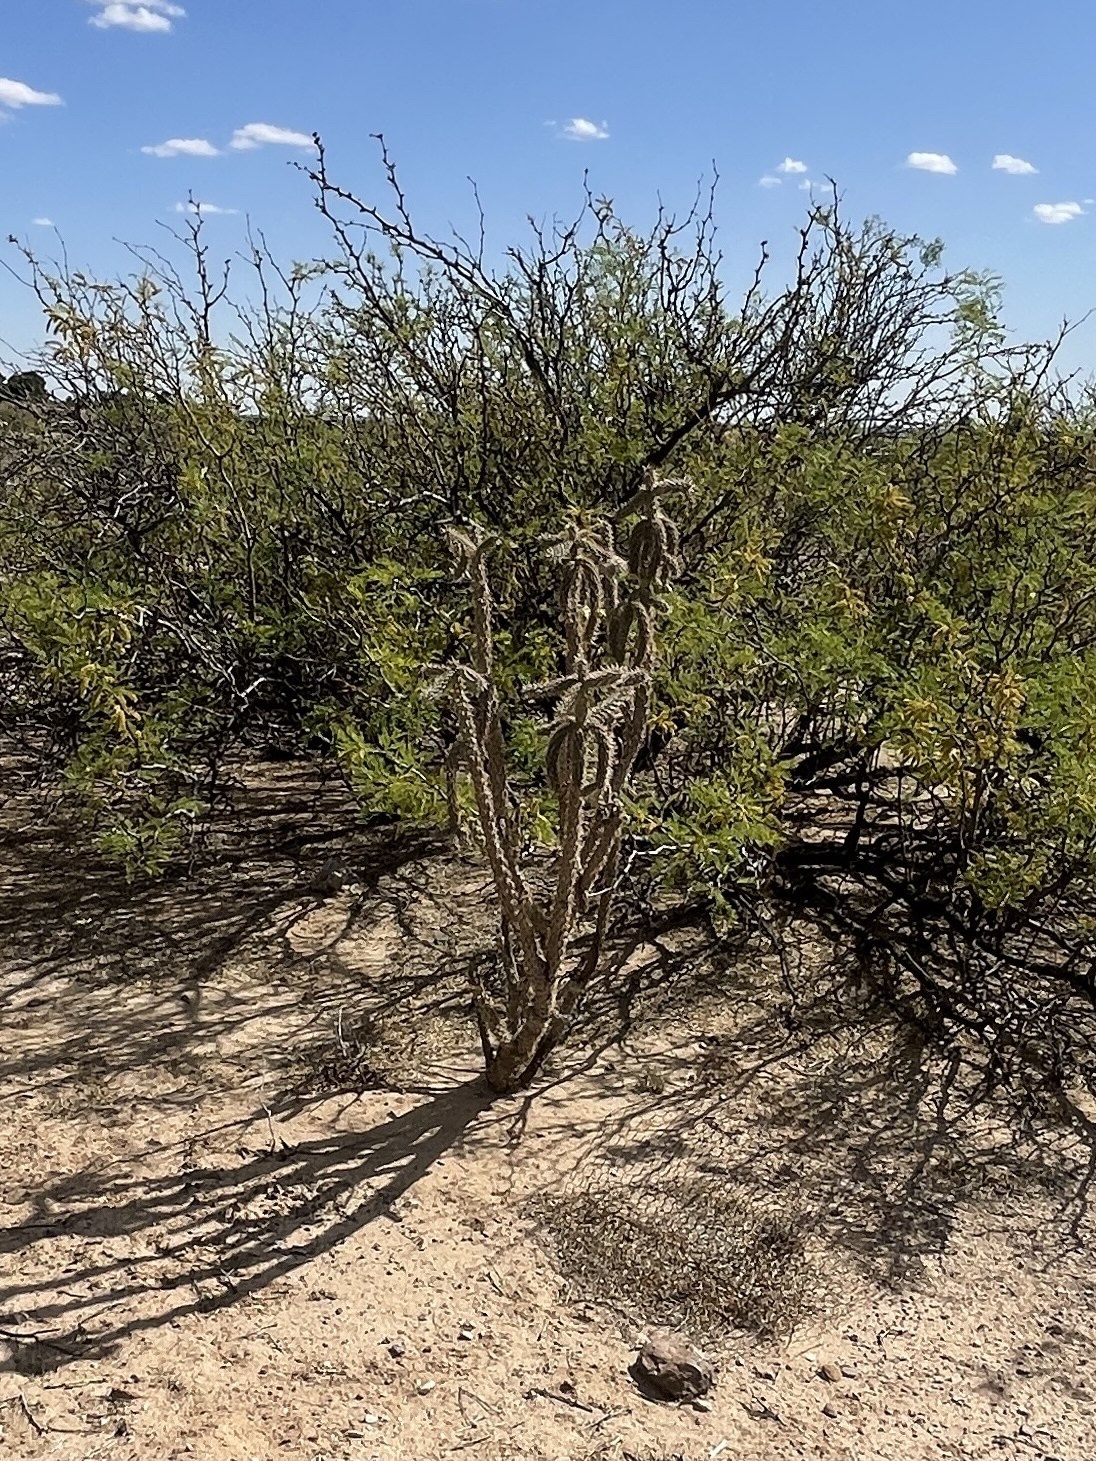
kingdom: Plantae
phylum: Tracheophyta
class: Magnoliopsida
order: Caryophyllales
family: Cactaceae
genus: Cylindropuntia
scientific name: Cylindropuntia imbricata
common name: Candelabrum cactus
